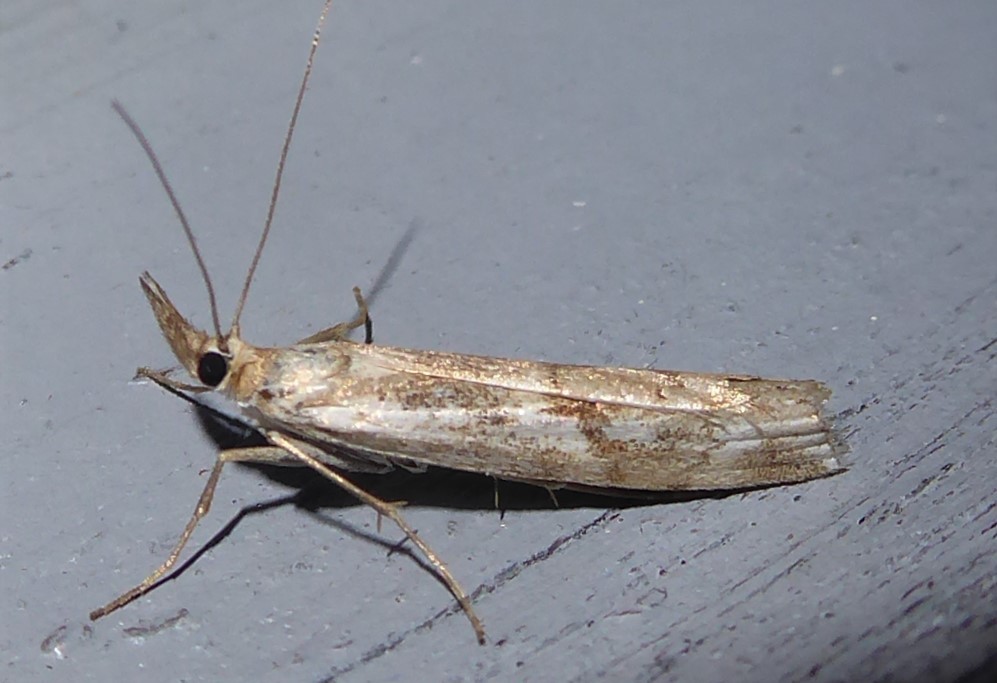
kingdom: Animalia
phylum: Arthropoda
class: Insecta
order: Lepidoptera
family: Crambidae
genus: Orocrambus
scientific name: Orocrambus vulgaris
